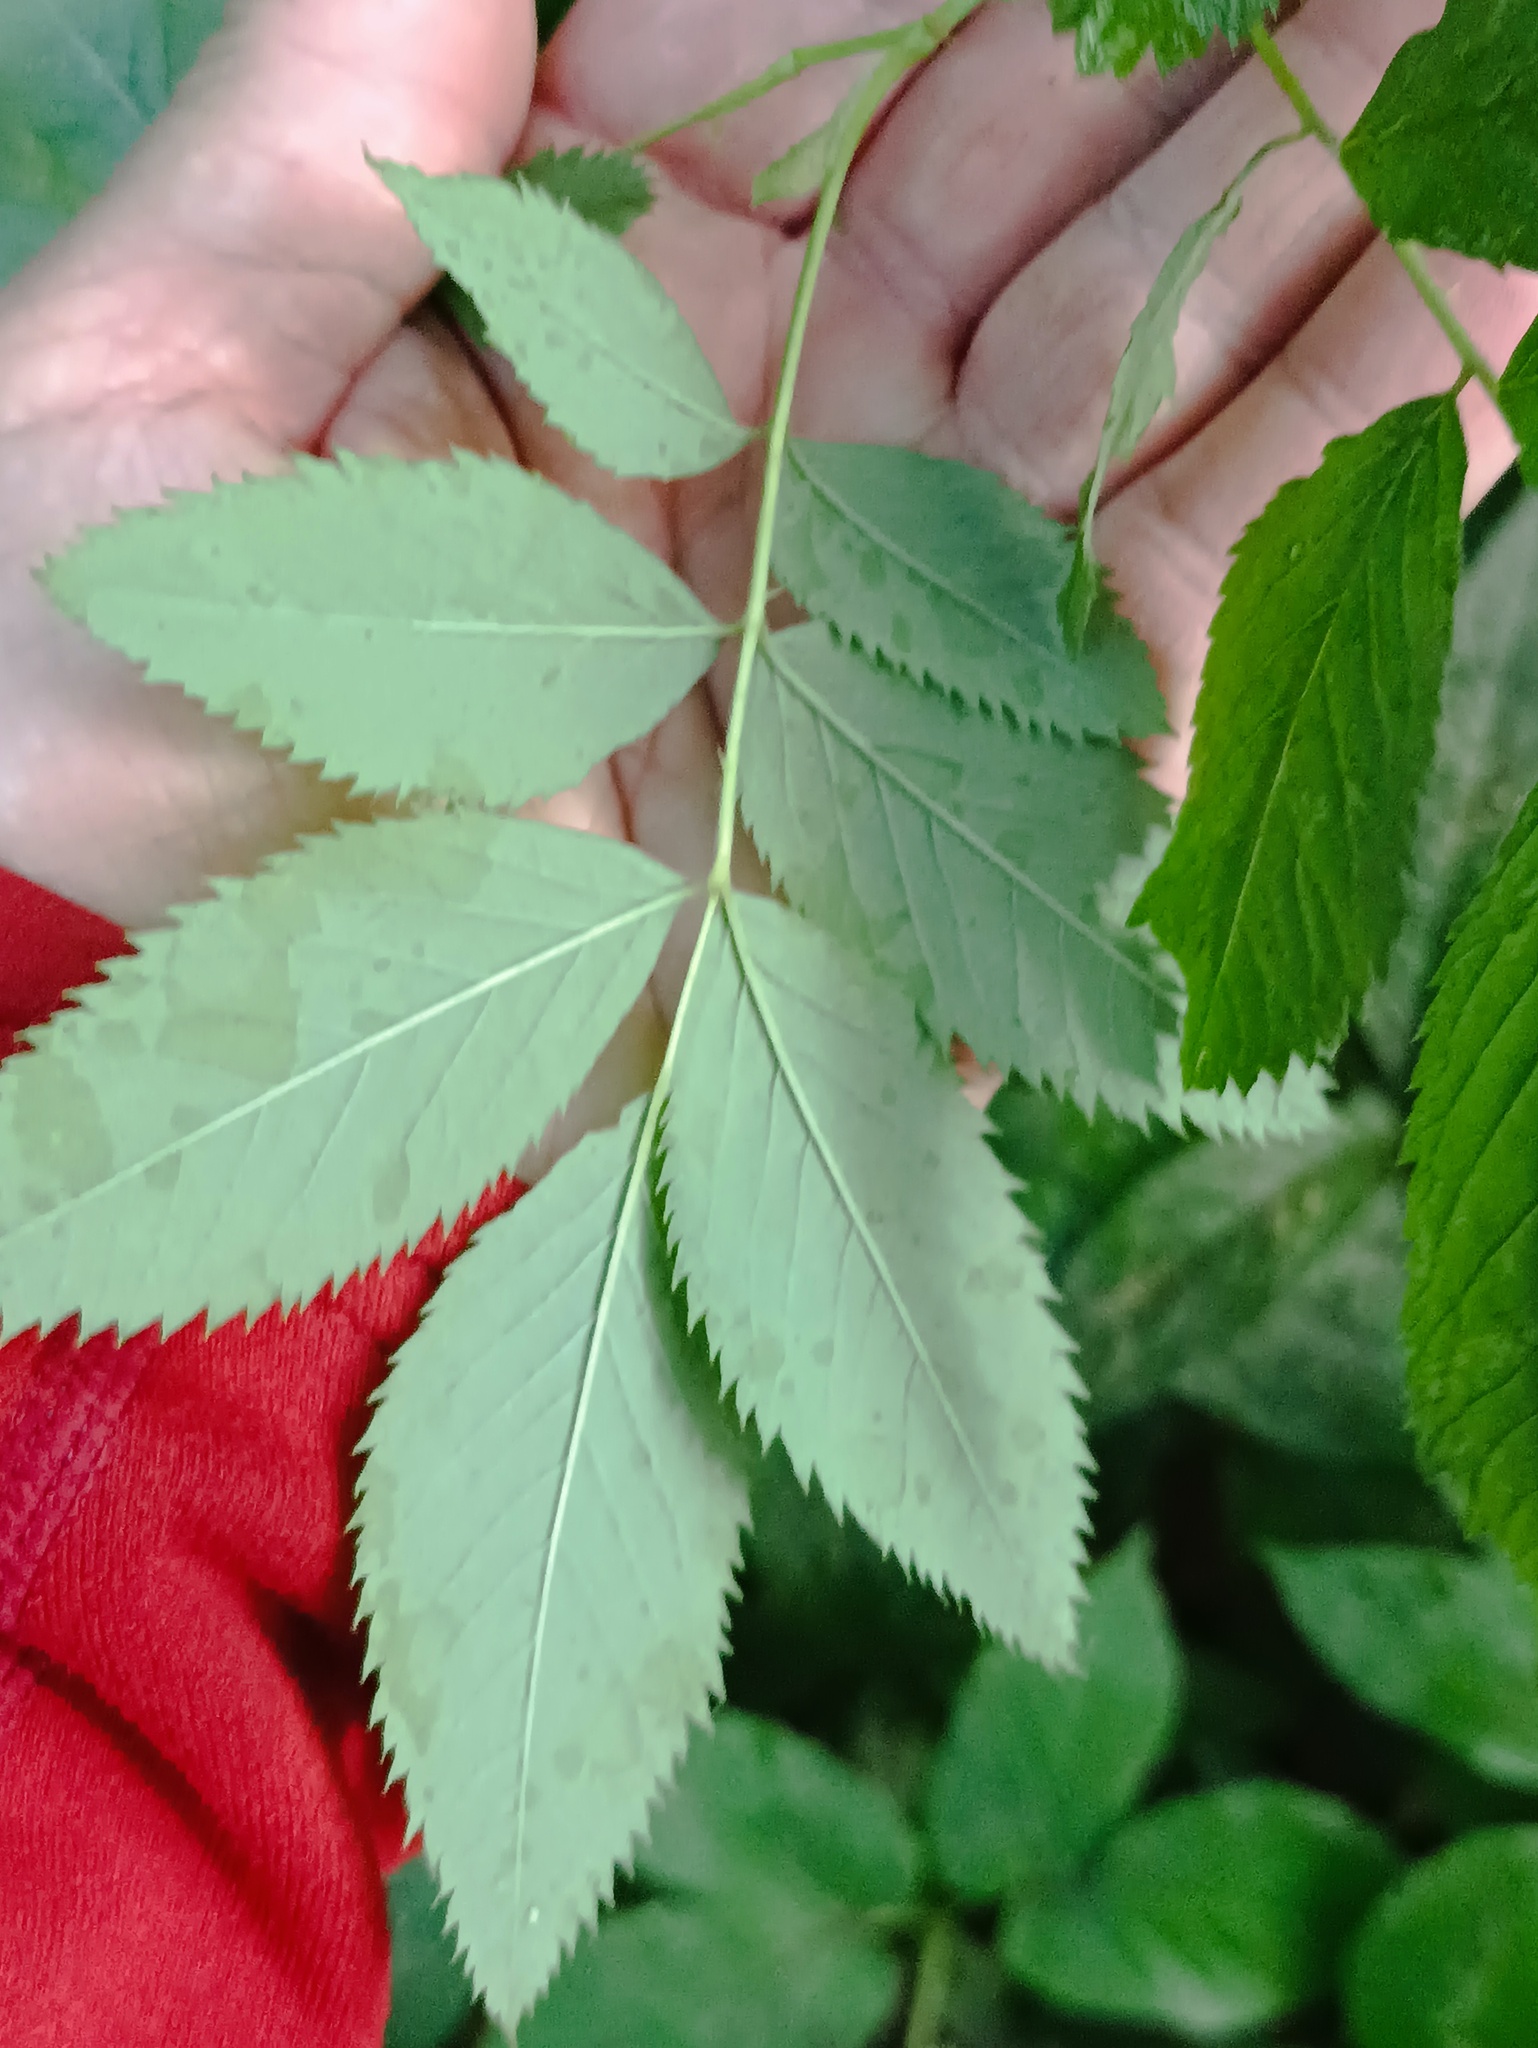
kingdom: Plantae
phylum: Tracheophyta
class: Magnoliopsida
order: Rosales
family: Rosaceae
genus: Rosa
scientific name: Rosa
